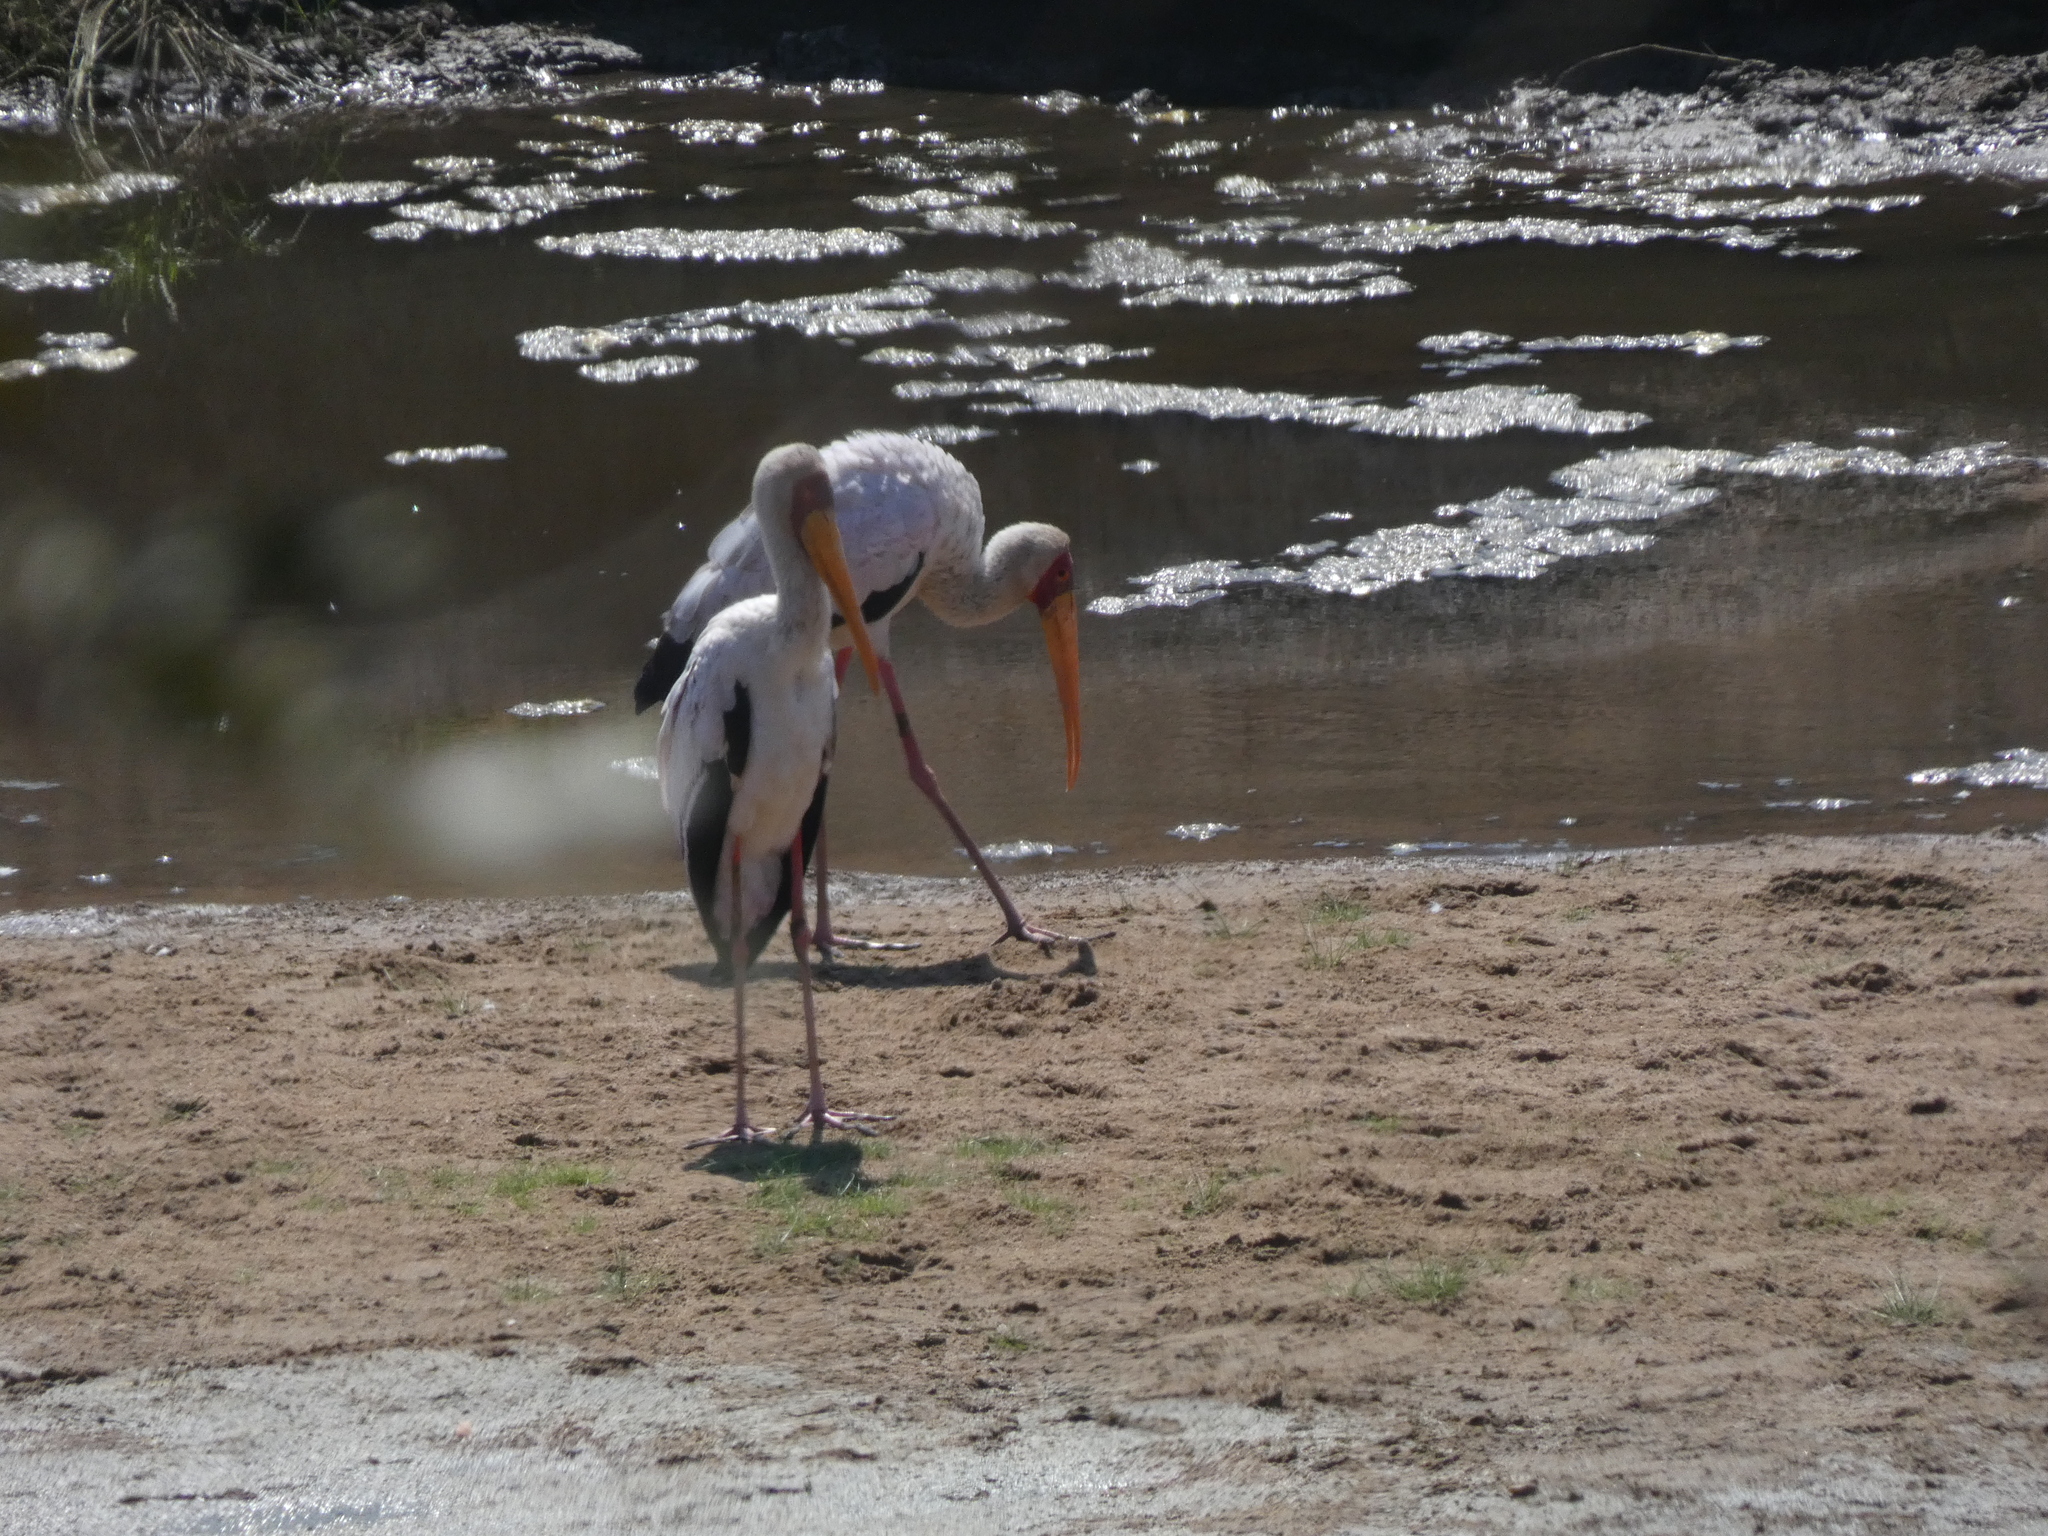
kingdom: Animalia
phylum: Chordata
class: Aves
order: Ciconiiformes
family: Ciconiidae
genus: Mycteria
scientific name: Mycteria ibis
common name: Yellow-billed stork
